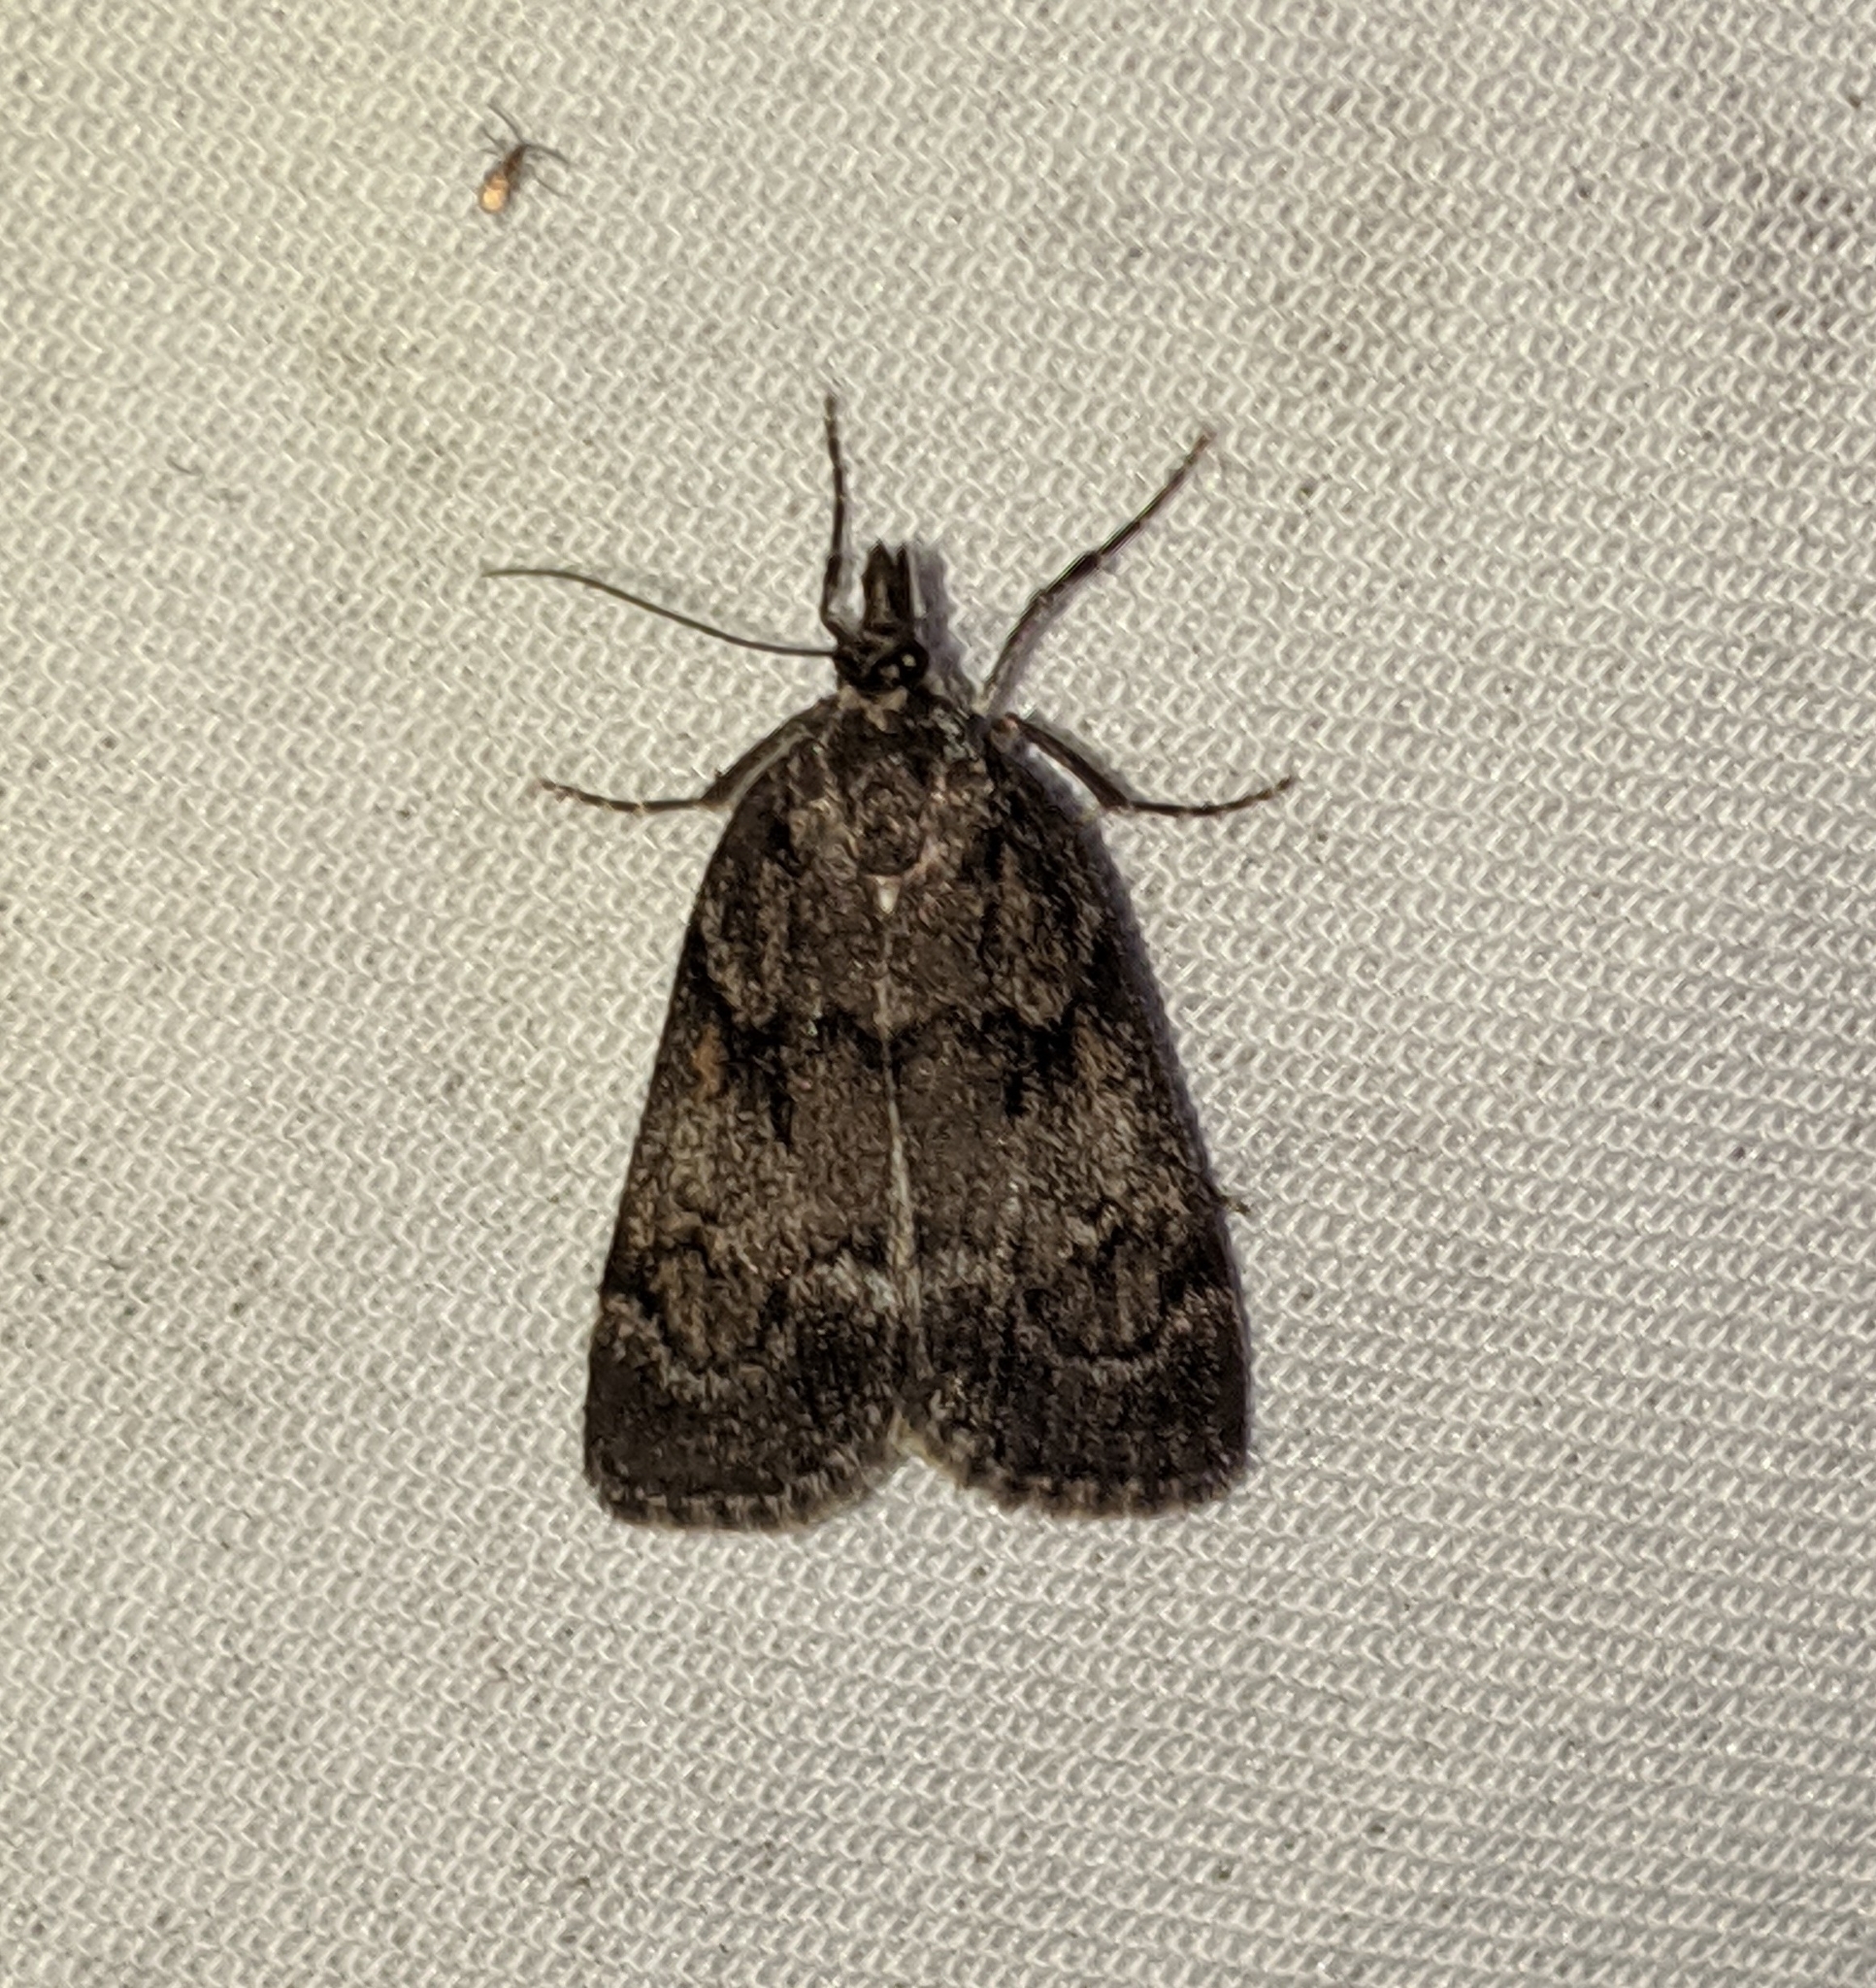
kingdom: Animalia
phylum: Arthropoda
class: Insecta
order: Lepidoptera
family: Crambidae
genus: Gesneria
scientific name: Gesneria centuriella
